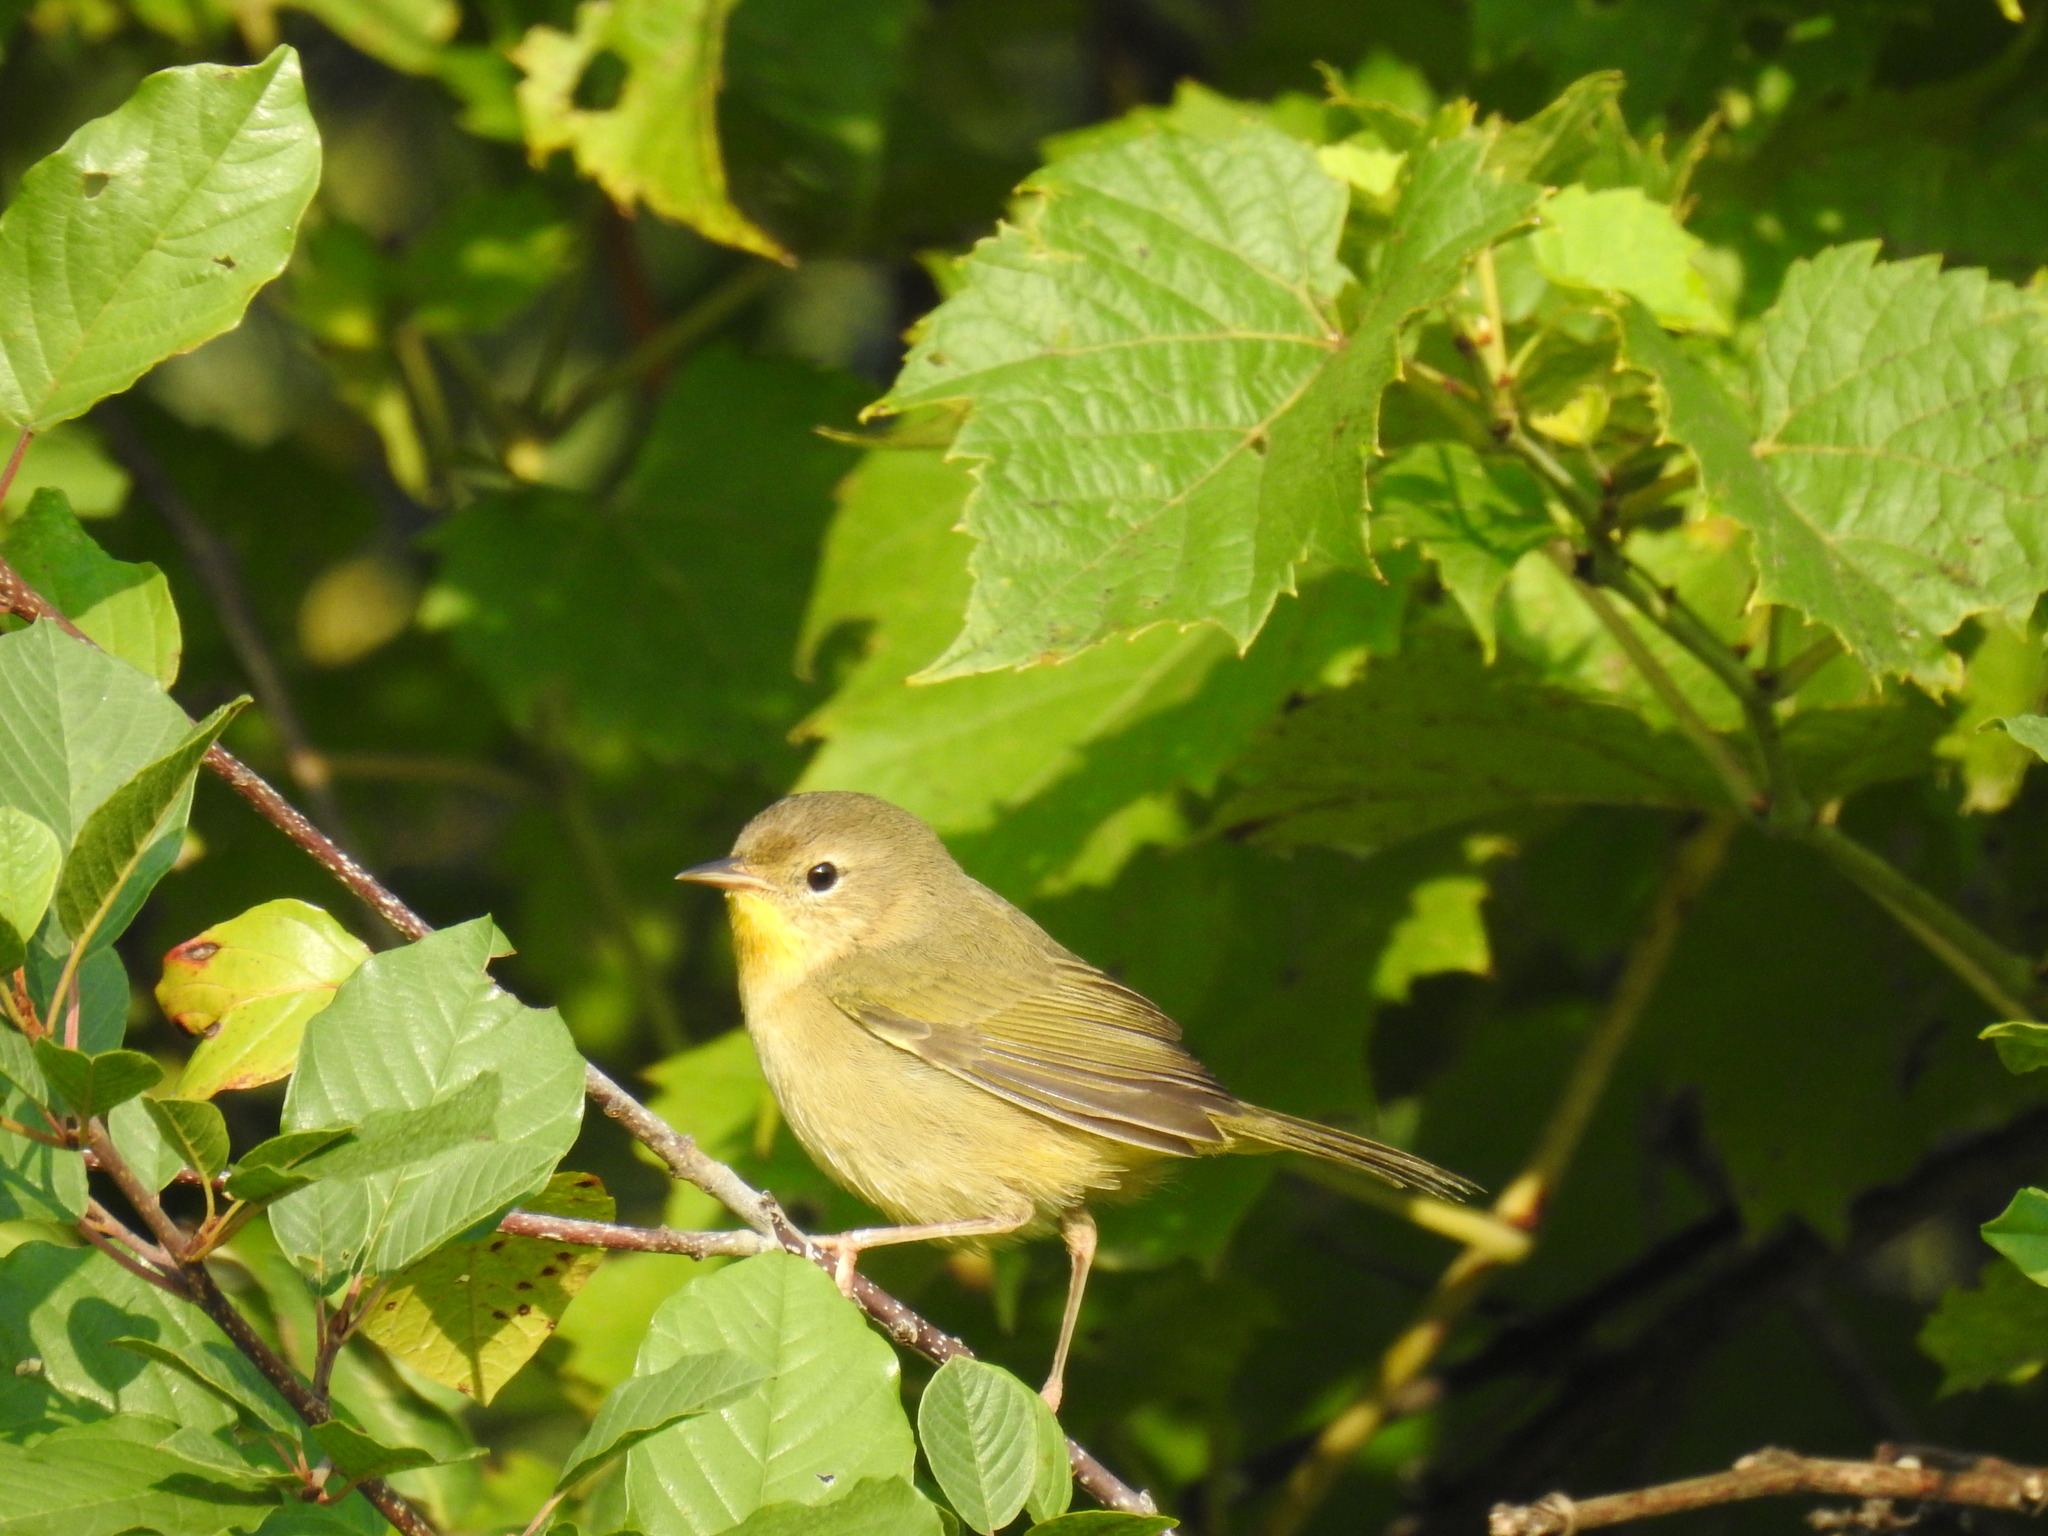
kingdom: Animalia
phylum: Chordata
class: Aves
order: Passeriformes
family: Parulidae
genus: Geothlypis
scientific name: Geothlypis trichas
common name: Common yellowthroat
